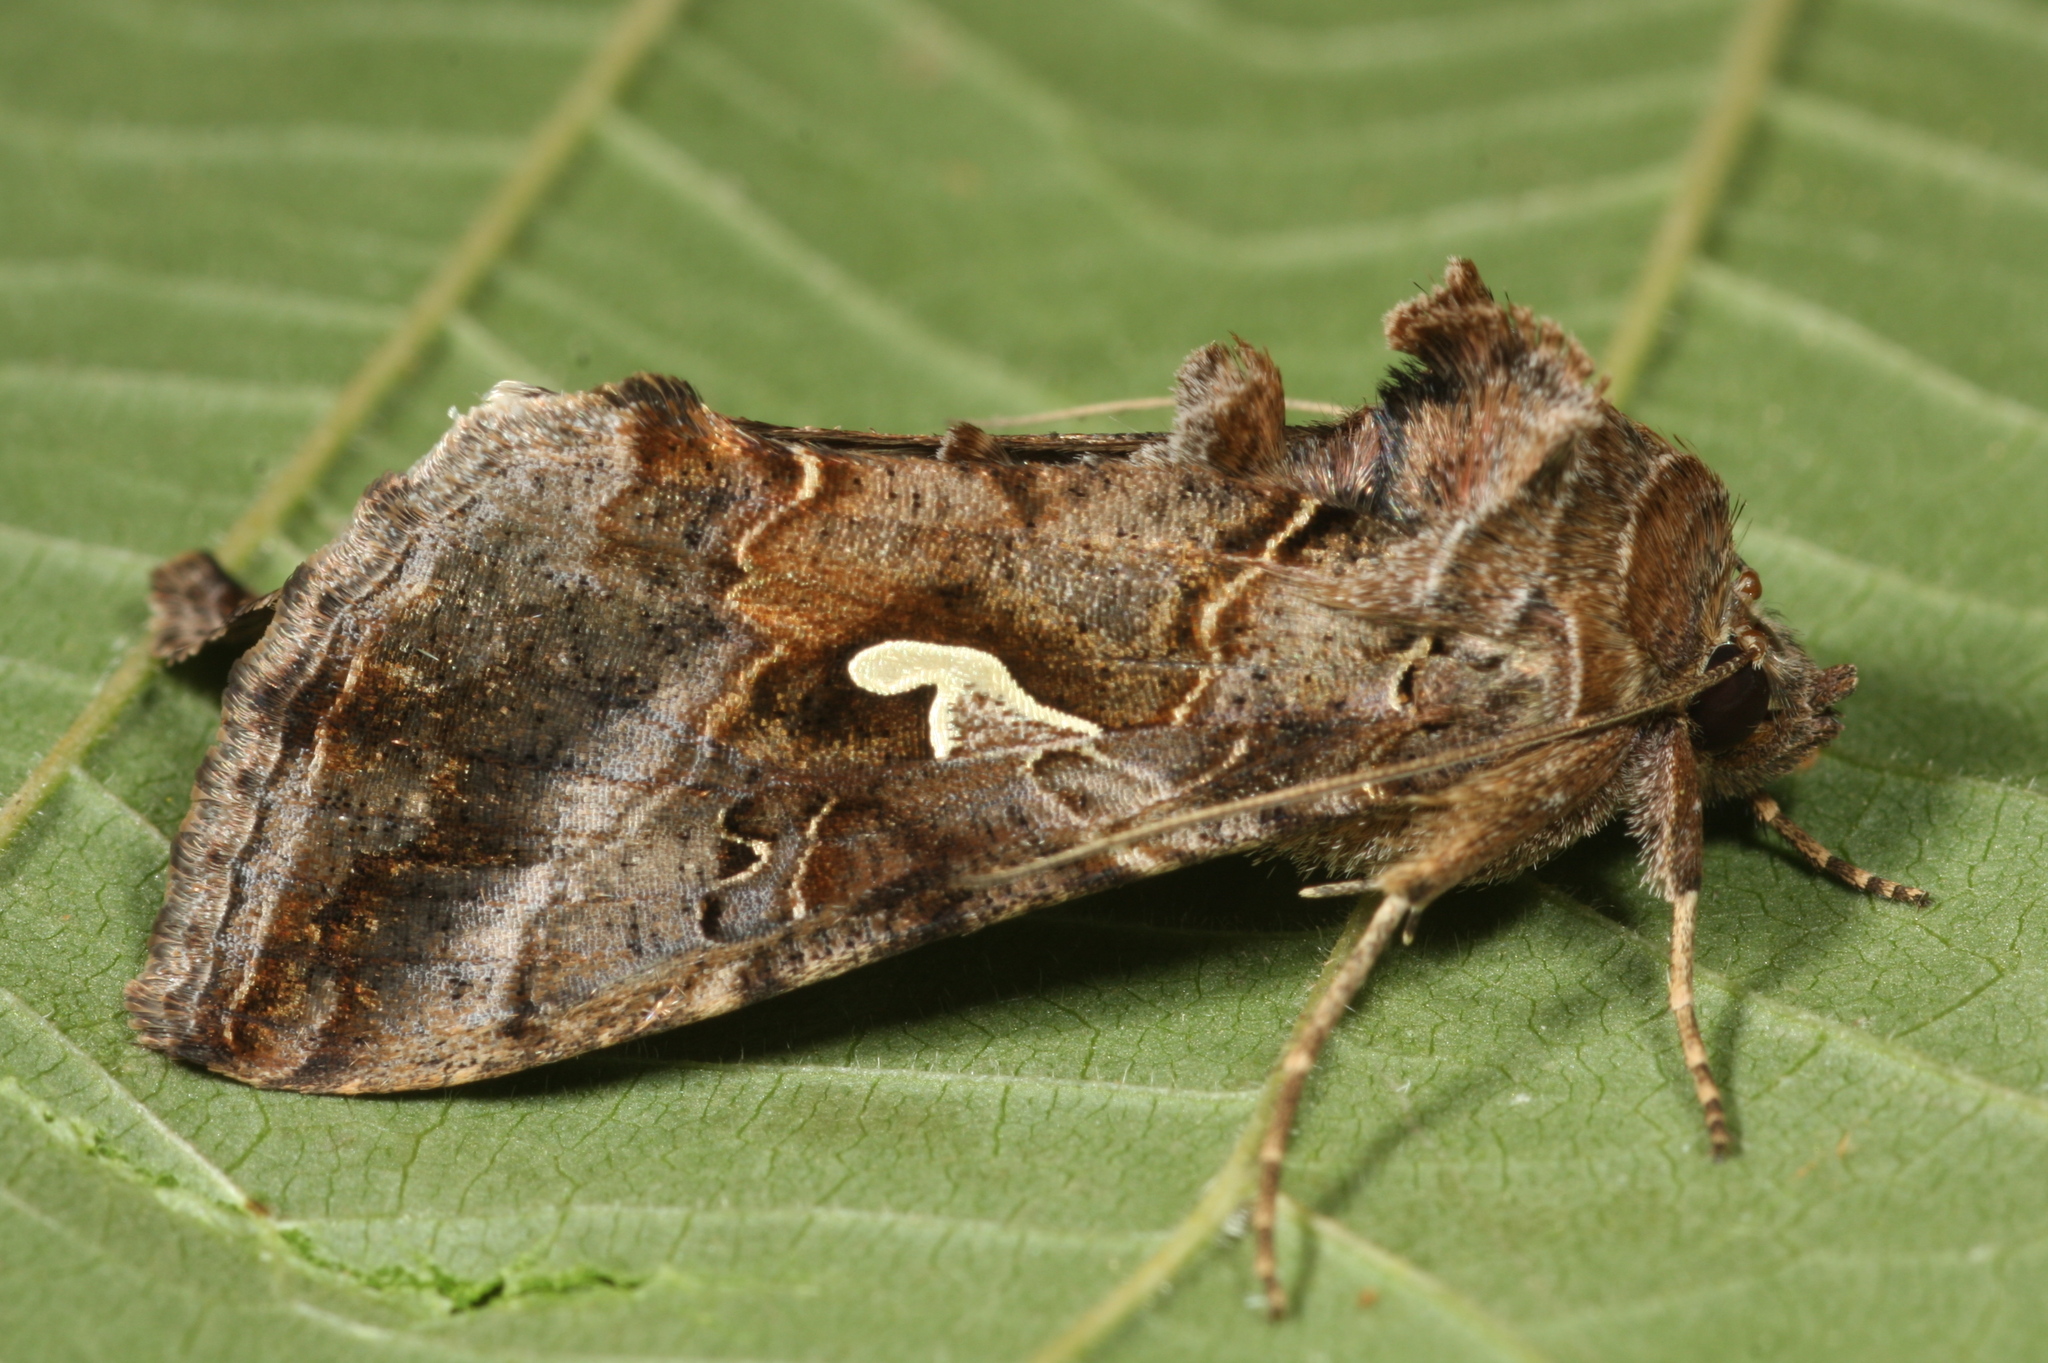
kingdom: Animalia
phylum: Arthropoda
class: Insecta
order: Lepidoptera
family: Noctuidae
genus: Autographa
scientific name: Autographa gamma
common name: Silver y
